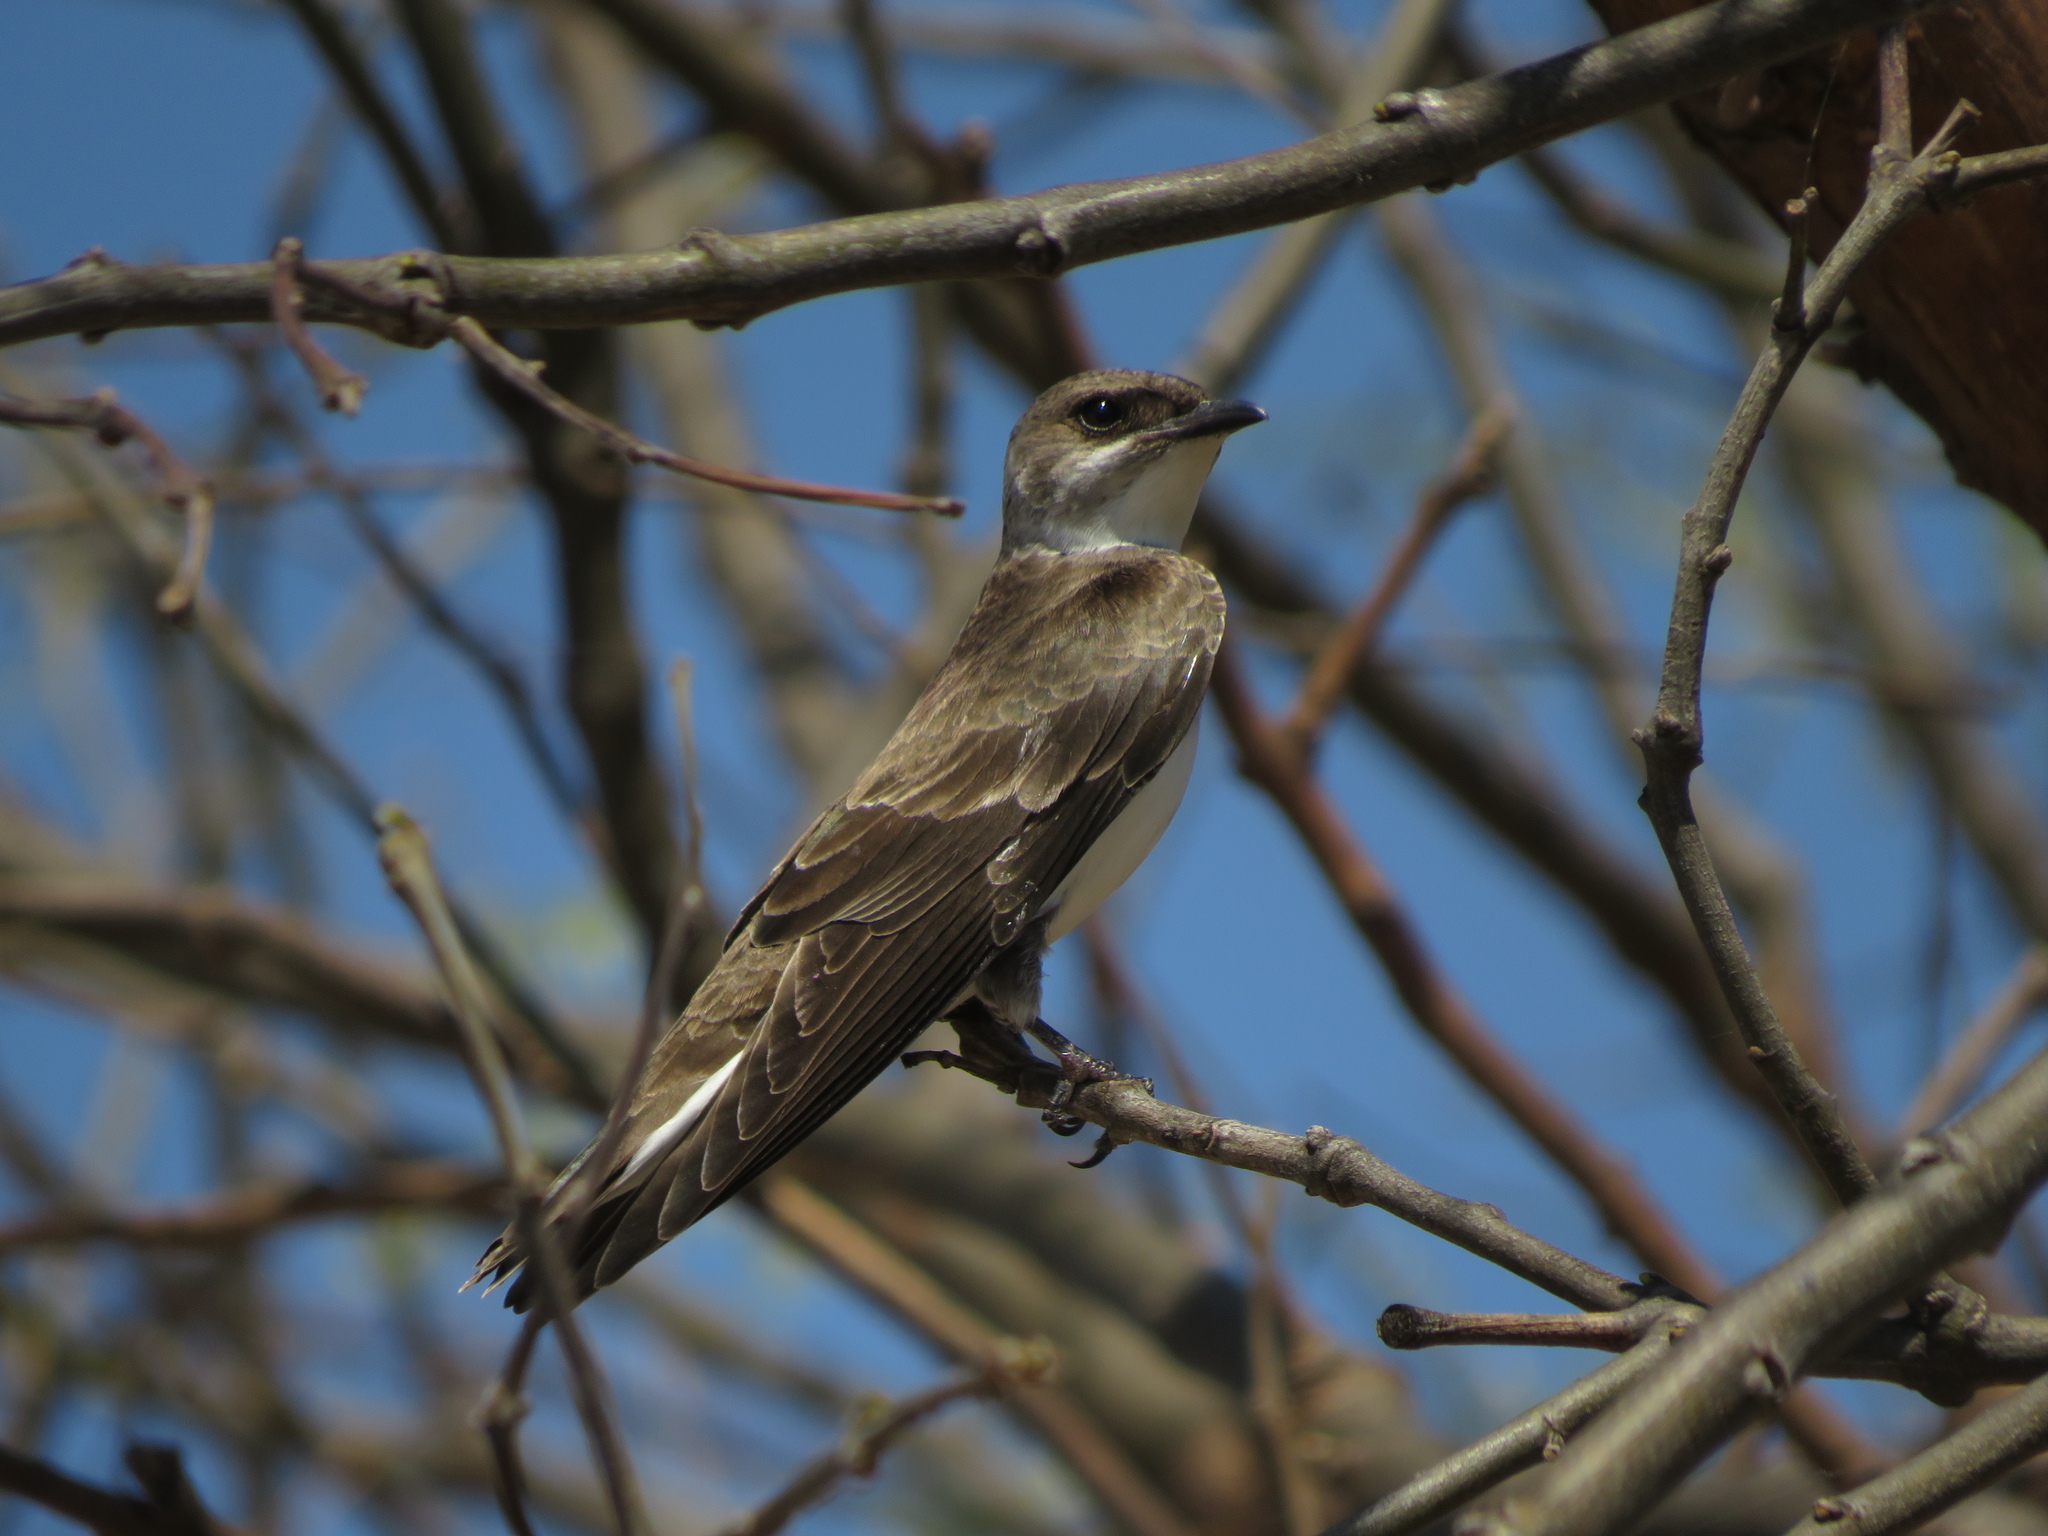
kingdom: Animalia
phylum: Chordata
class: Aves
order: Passeriformes
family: Hirundinidae
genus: Progne
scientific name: Progne tapera
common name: Brown-chested martin
